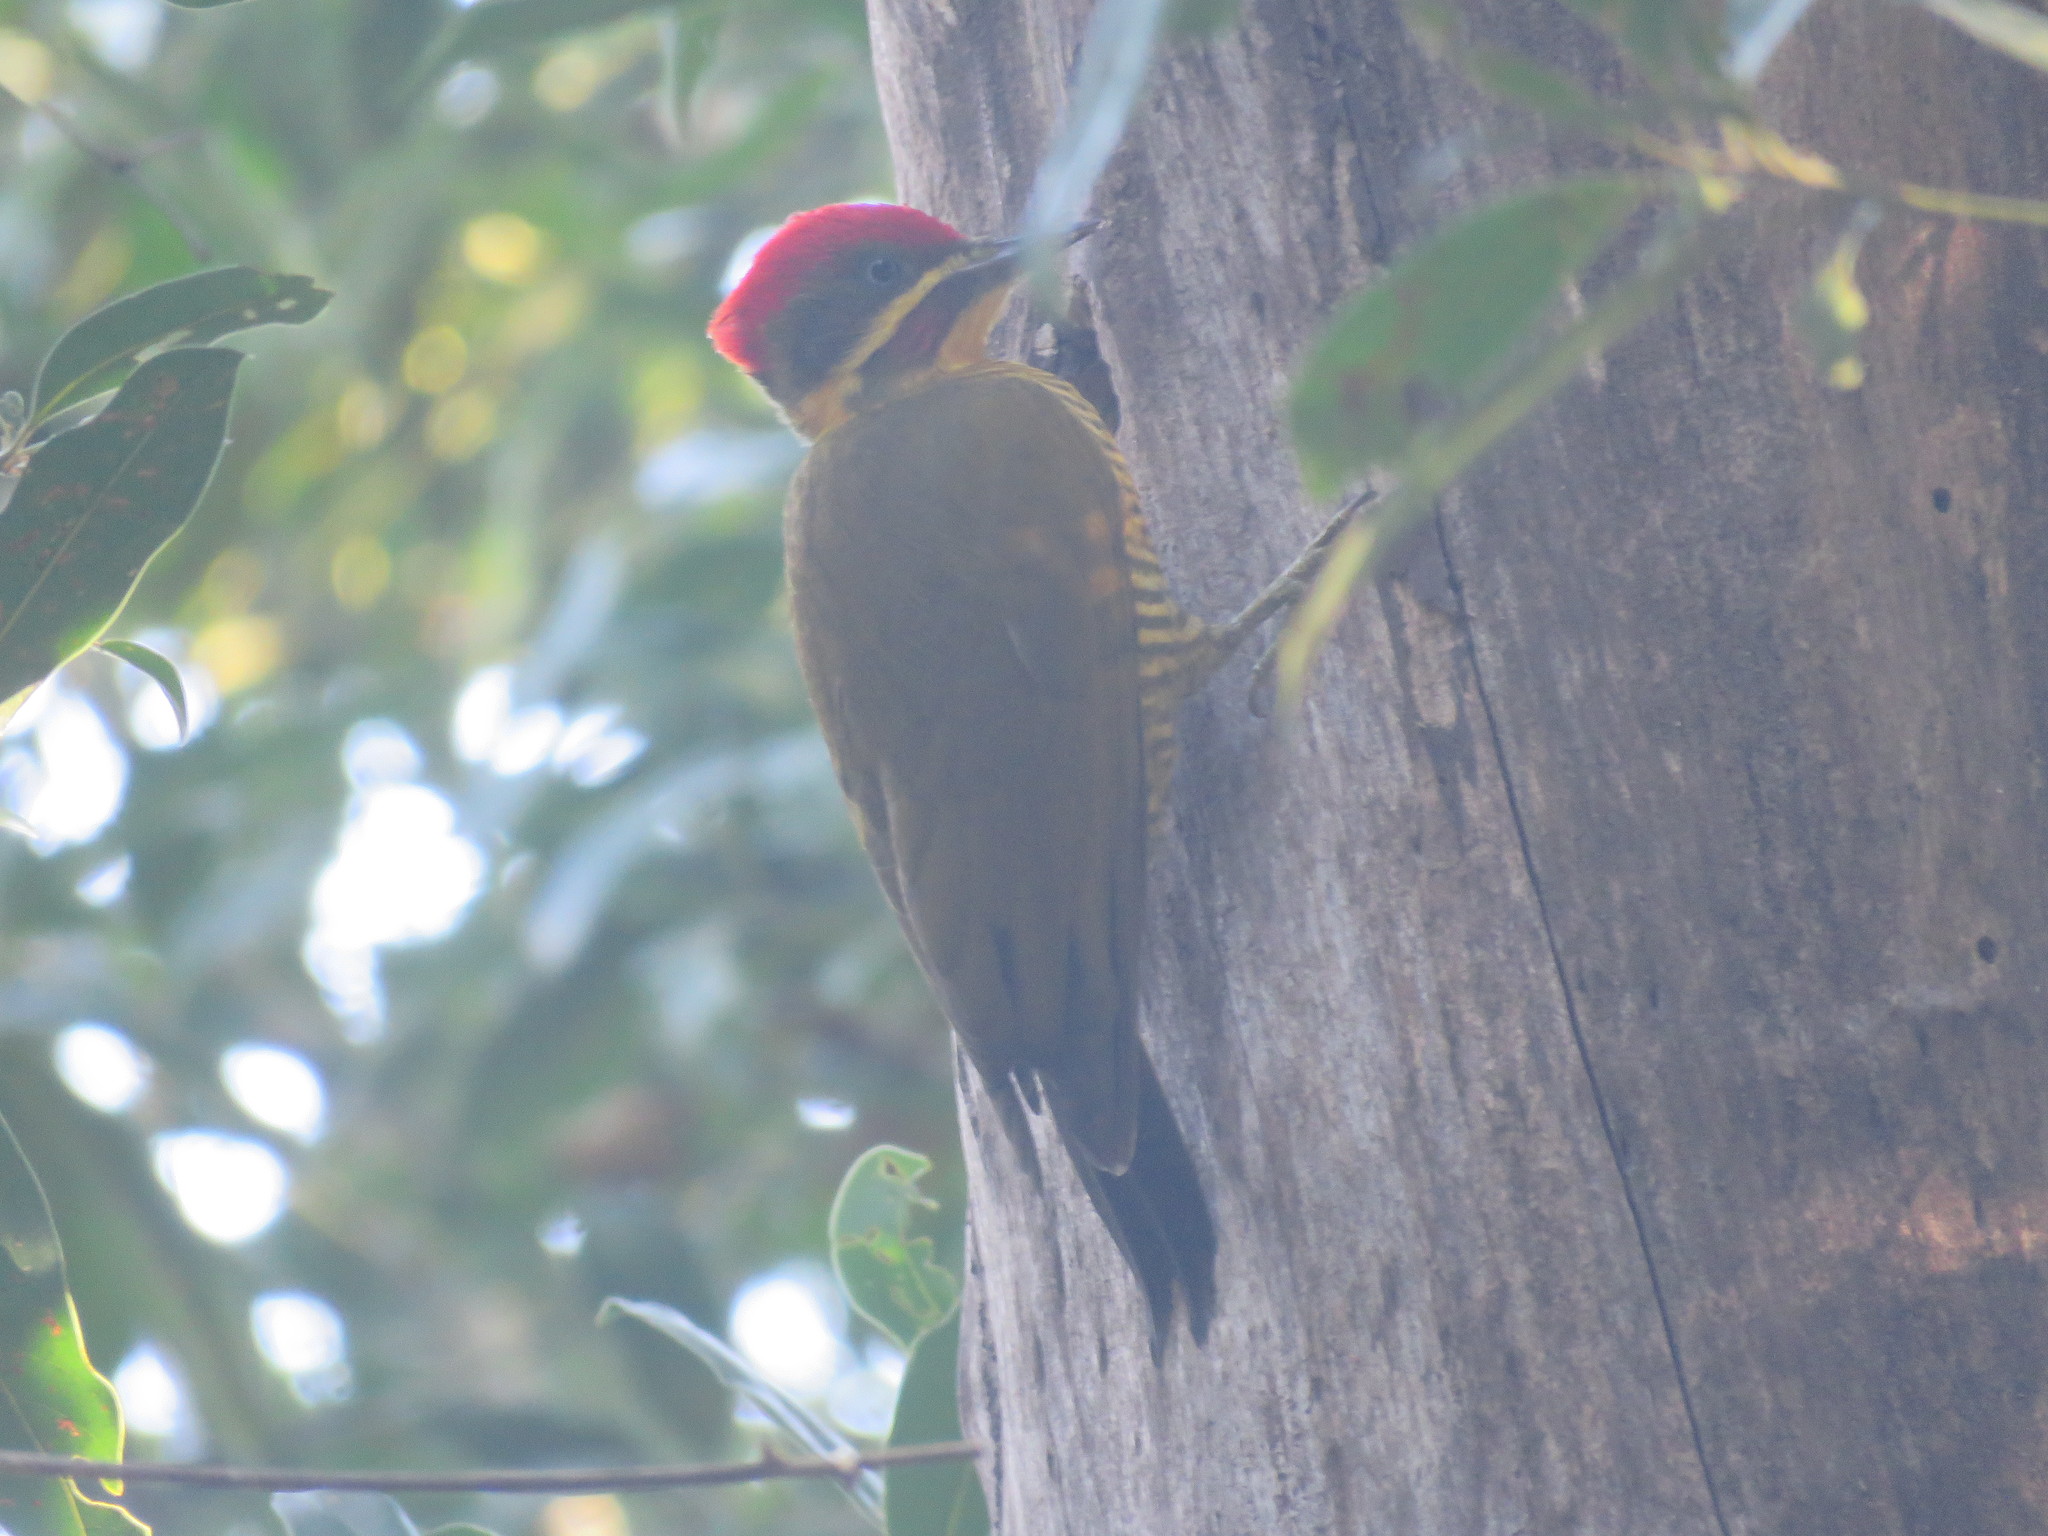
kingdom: Animalia
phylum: Chordata
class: Aves
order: Piciformes
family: Picidae
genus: Piculus
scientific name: Piculus chrysochloros
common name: Golden-green woodpecker
